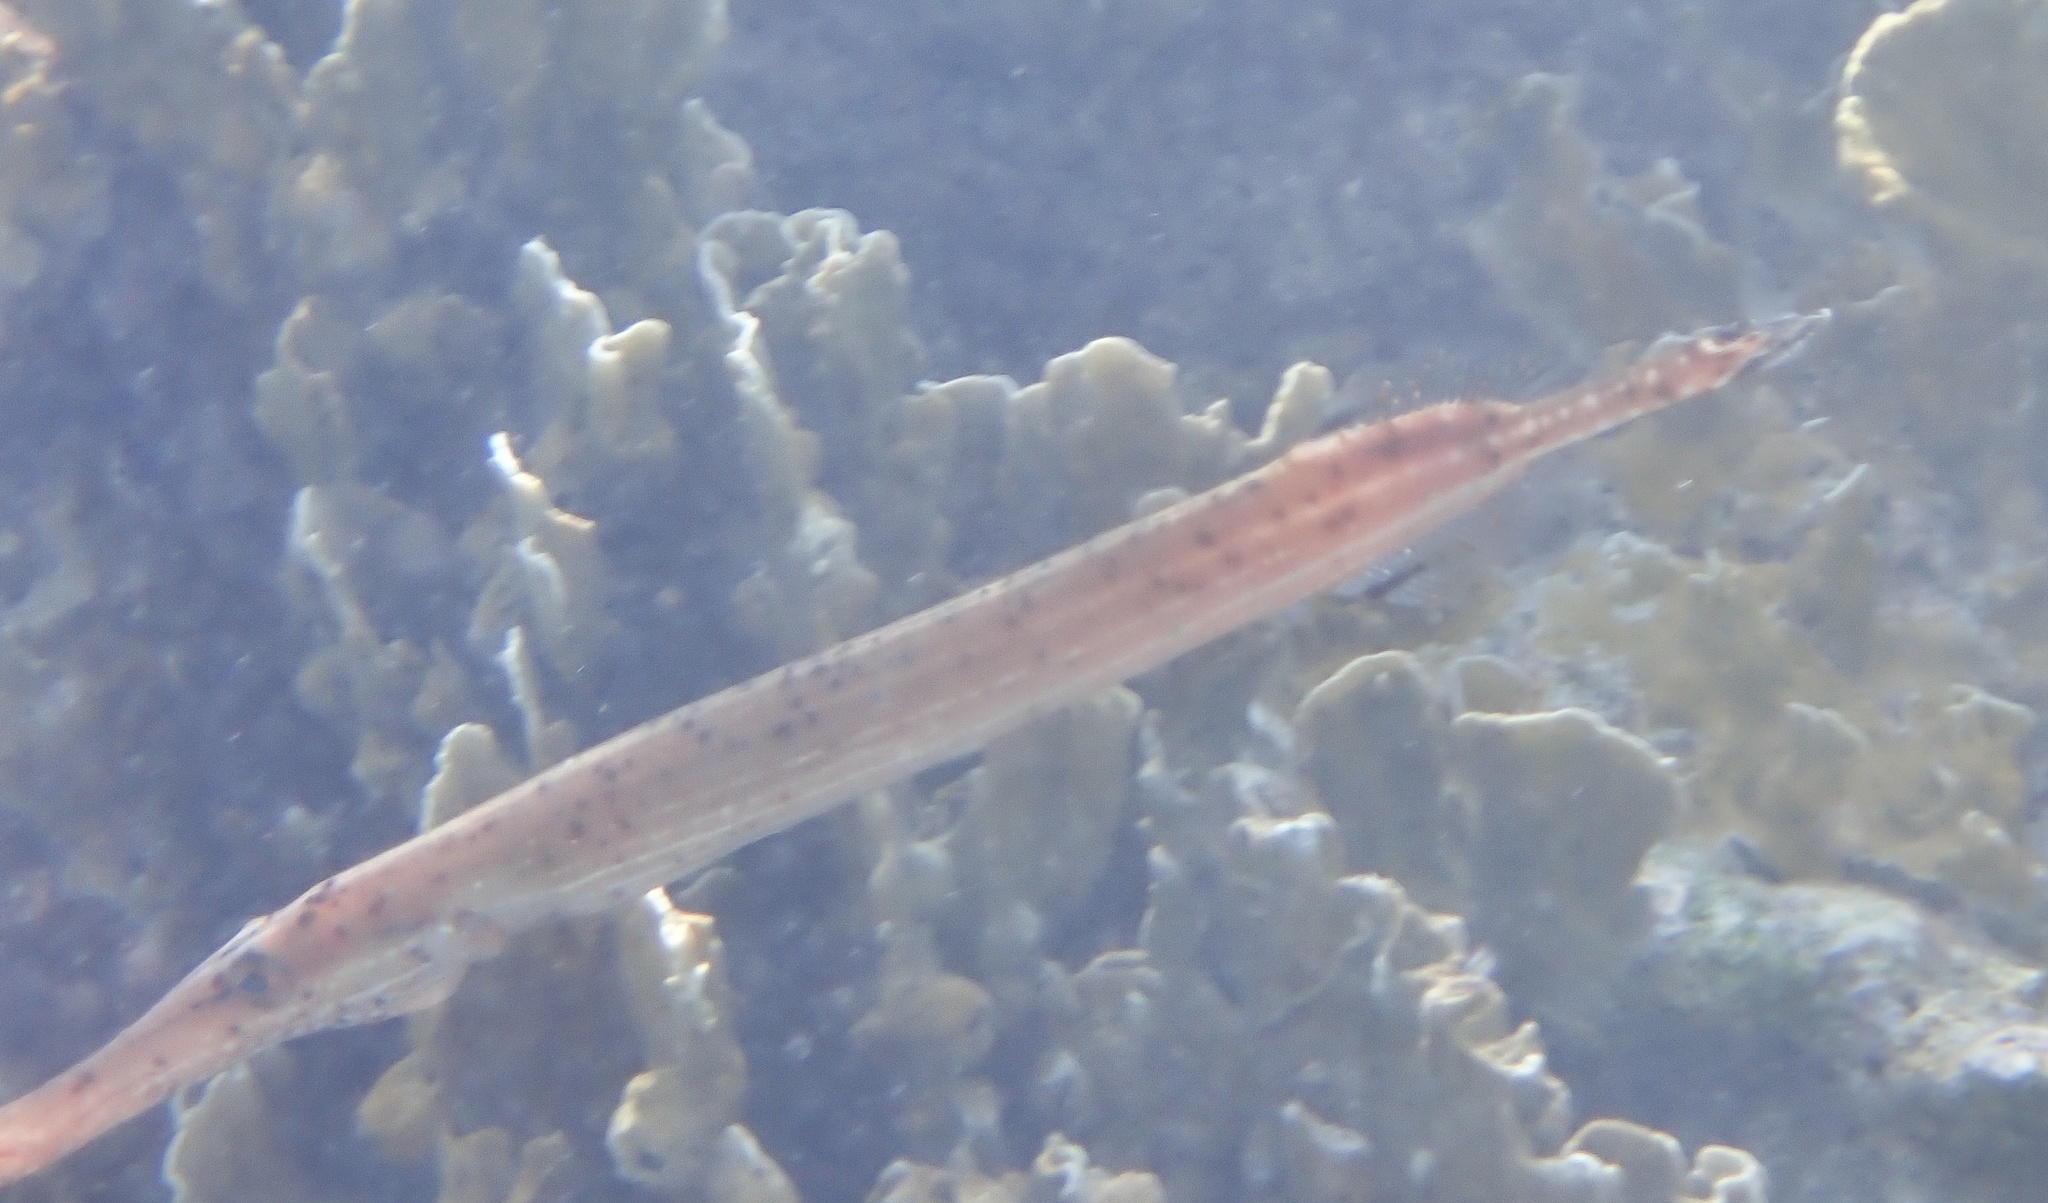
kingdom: Animalia
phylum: Chordata
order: Syngnathiformes
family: Aulostomidae
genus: Aulostomus
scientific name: Aulostomus maculatus
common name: West atlantic trumpetfish
